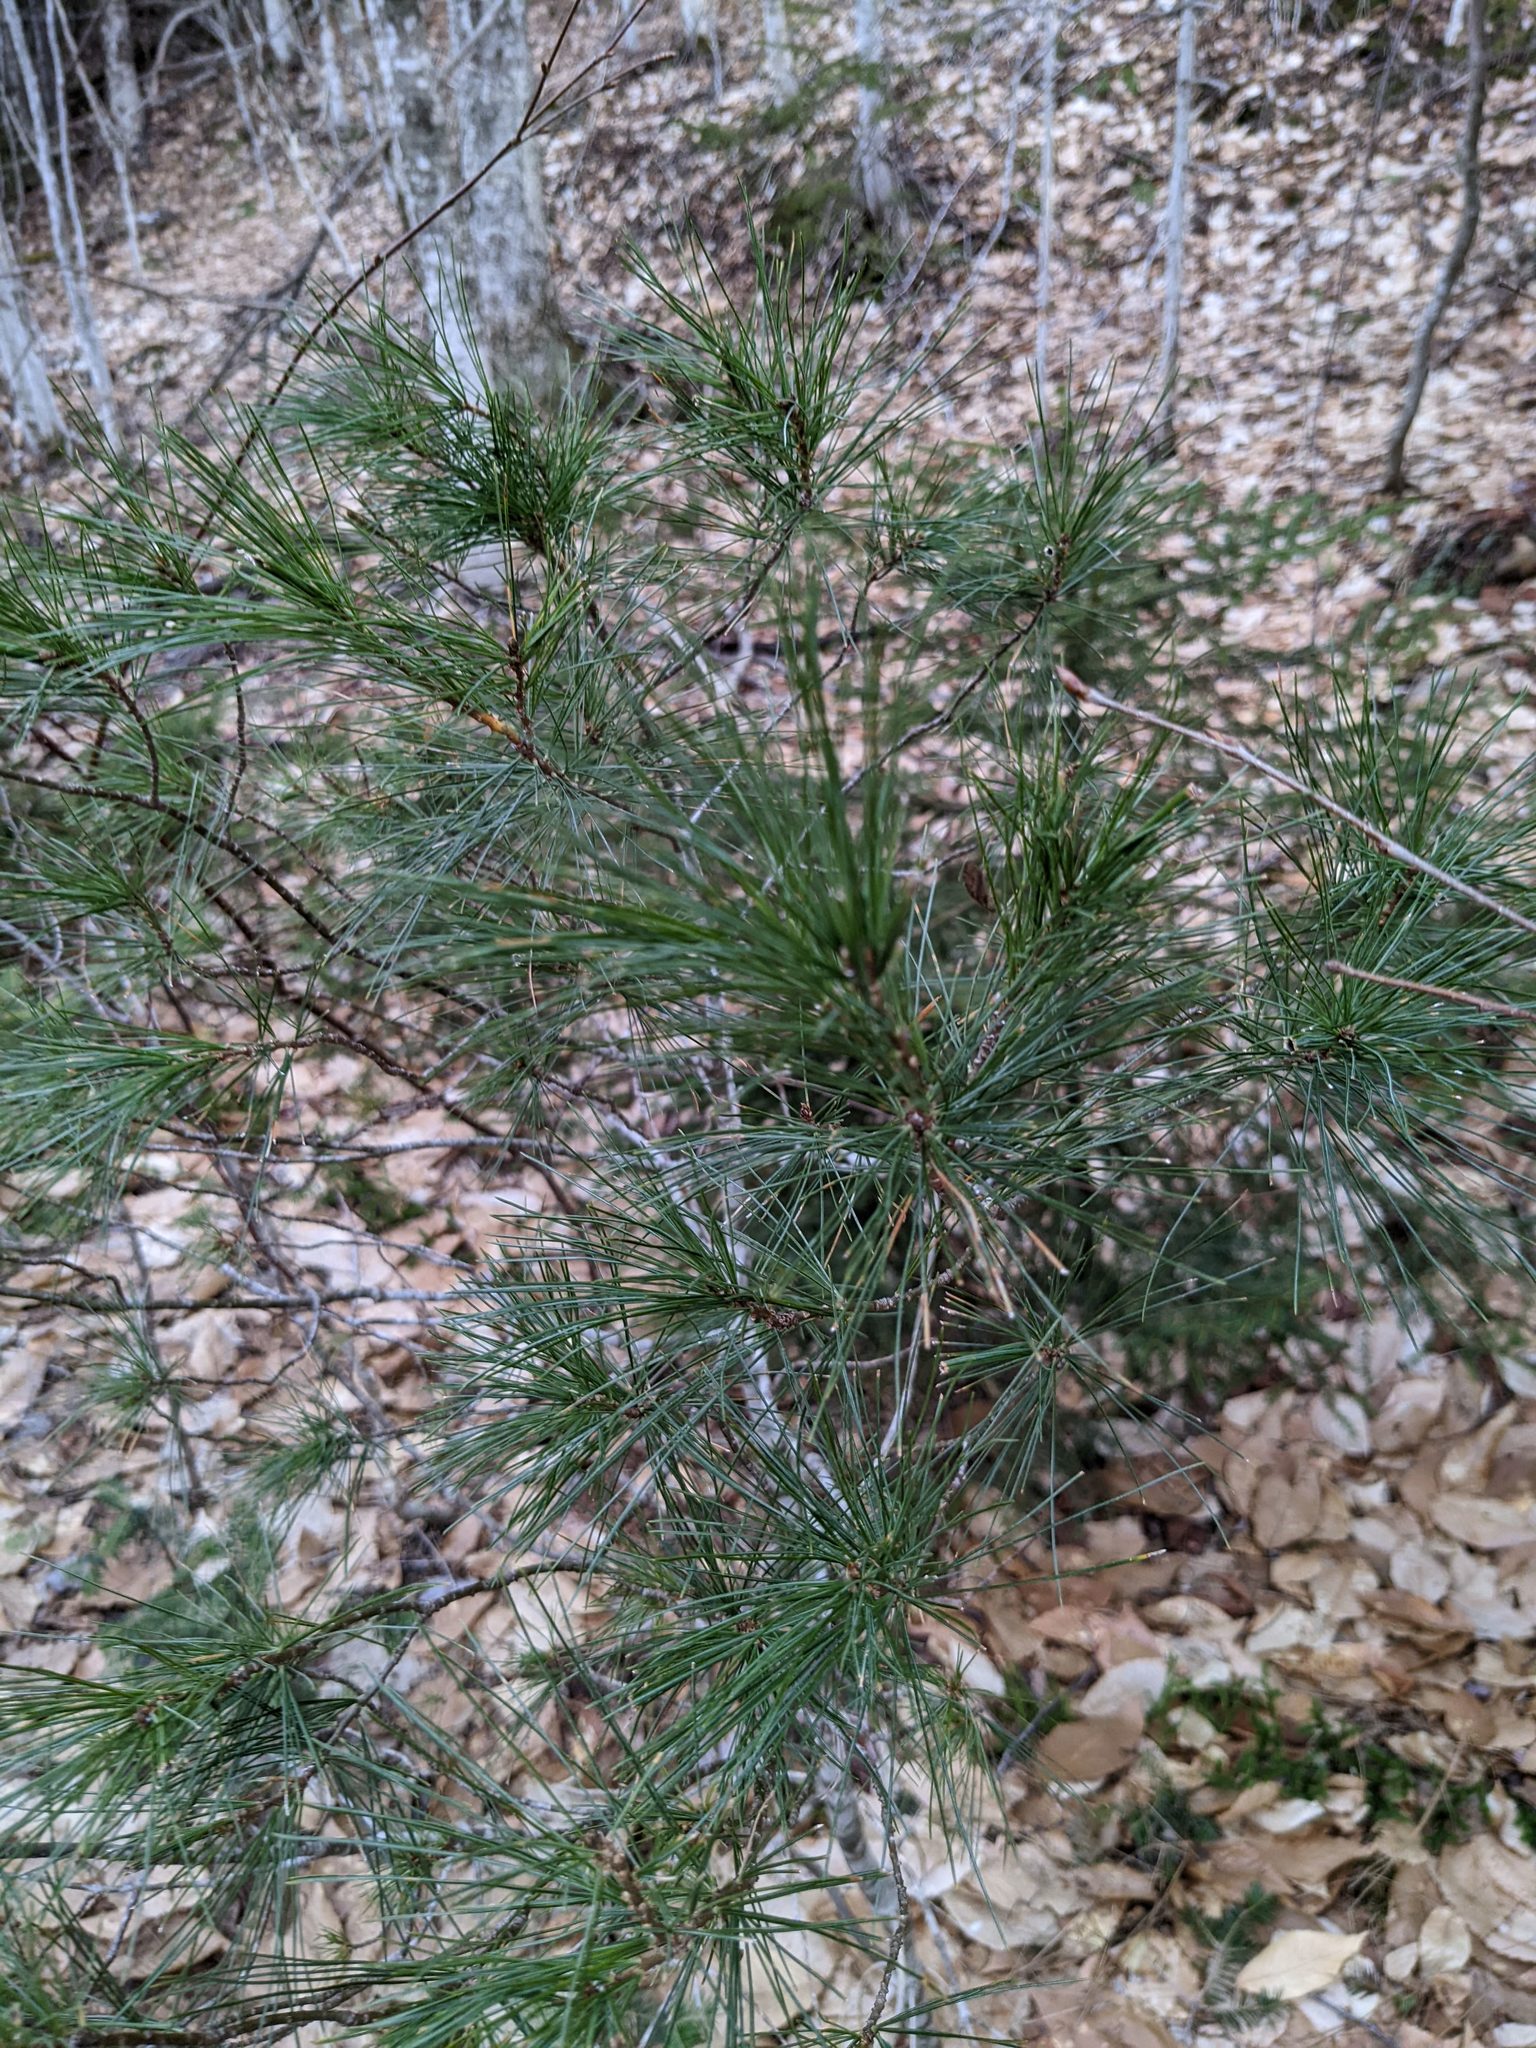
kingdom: Plantae
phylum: Tracheophyta
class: Pinopsida
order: Pinales
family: Pinaceae
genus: Pinus
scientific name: Pinus strobus
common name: Weymouth pine
